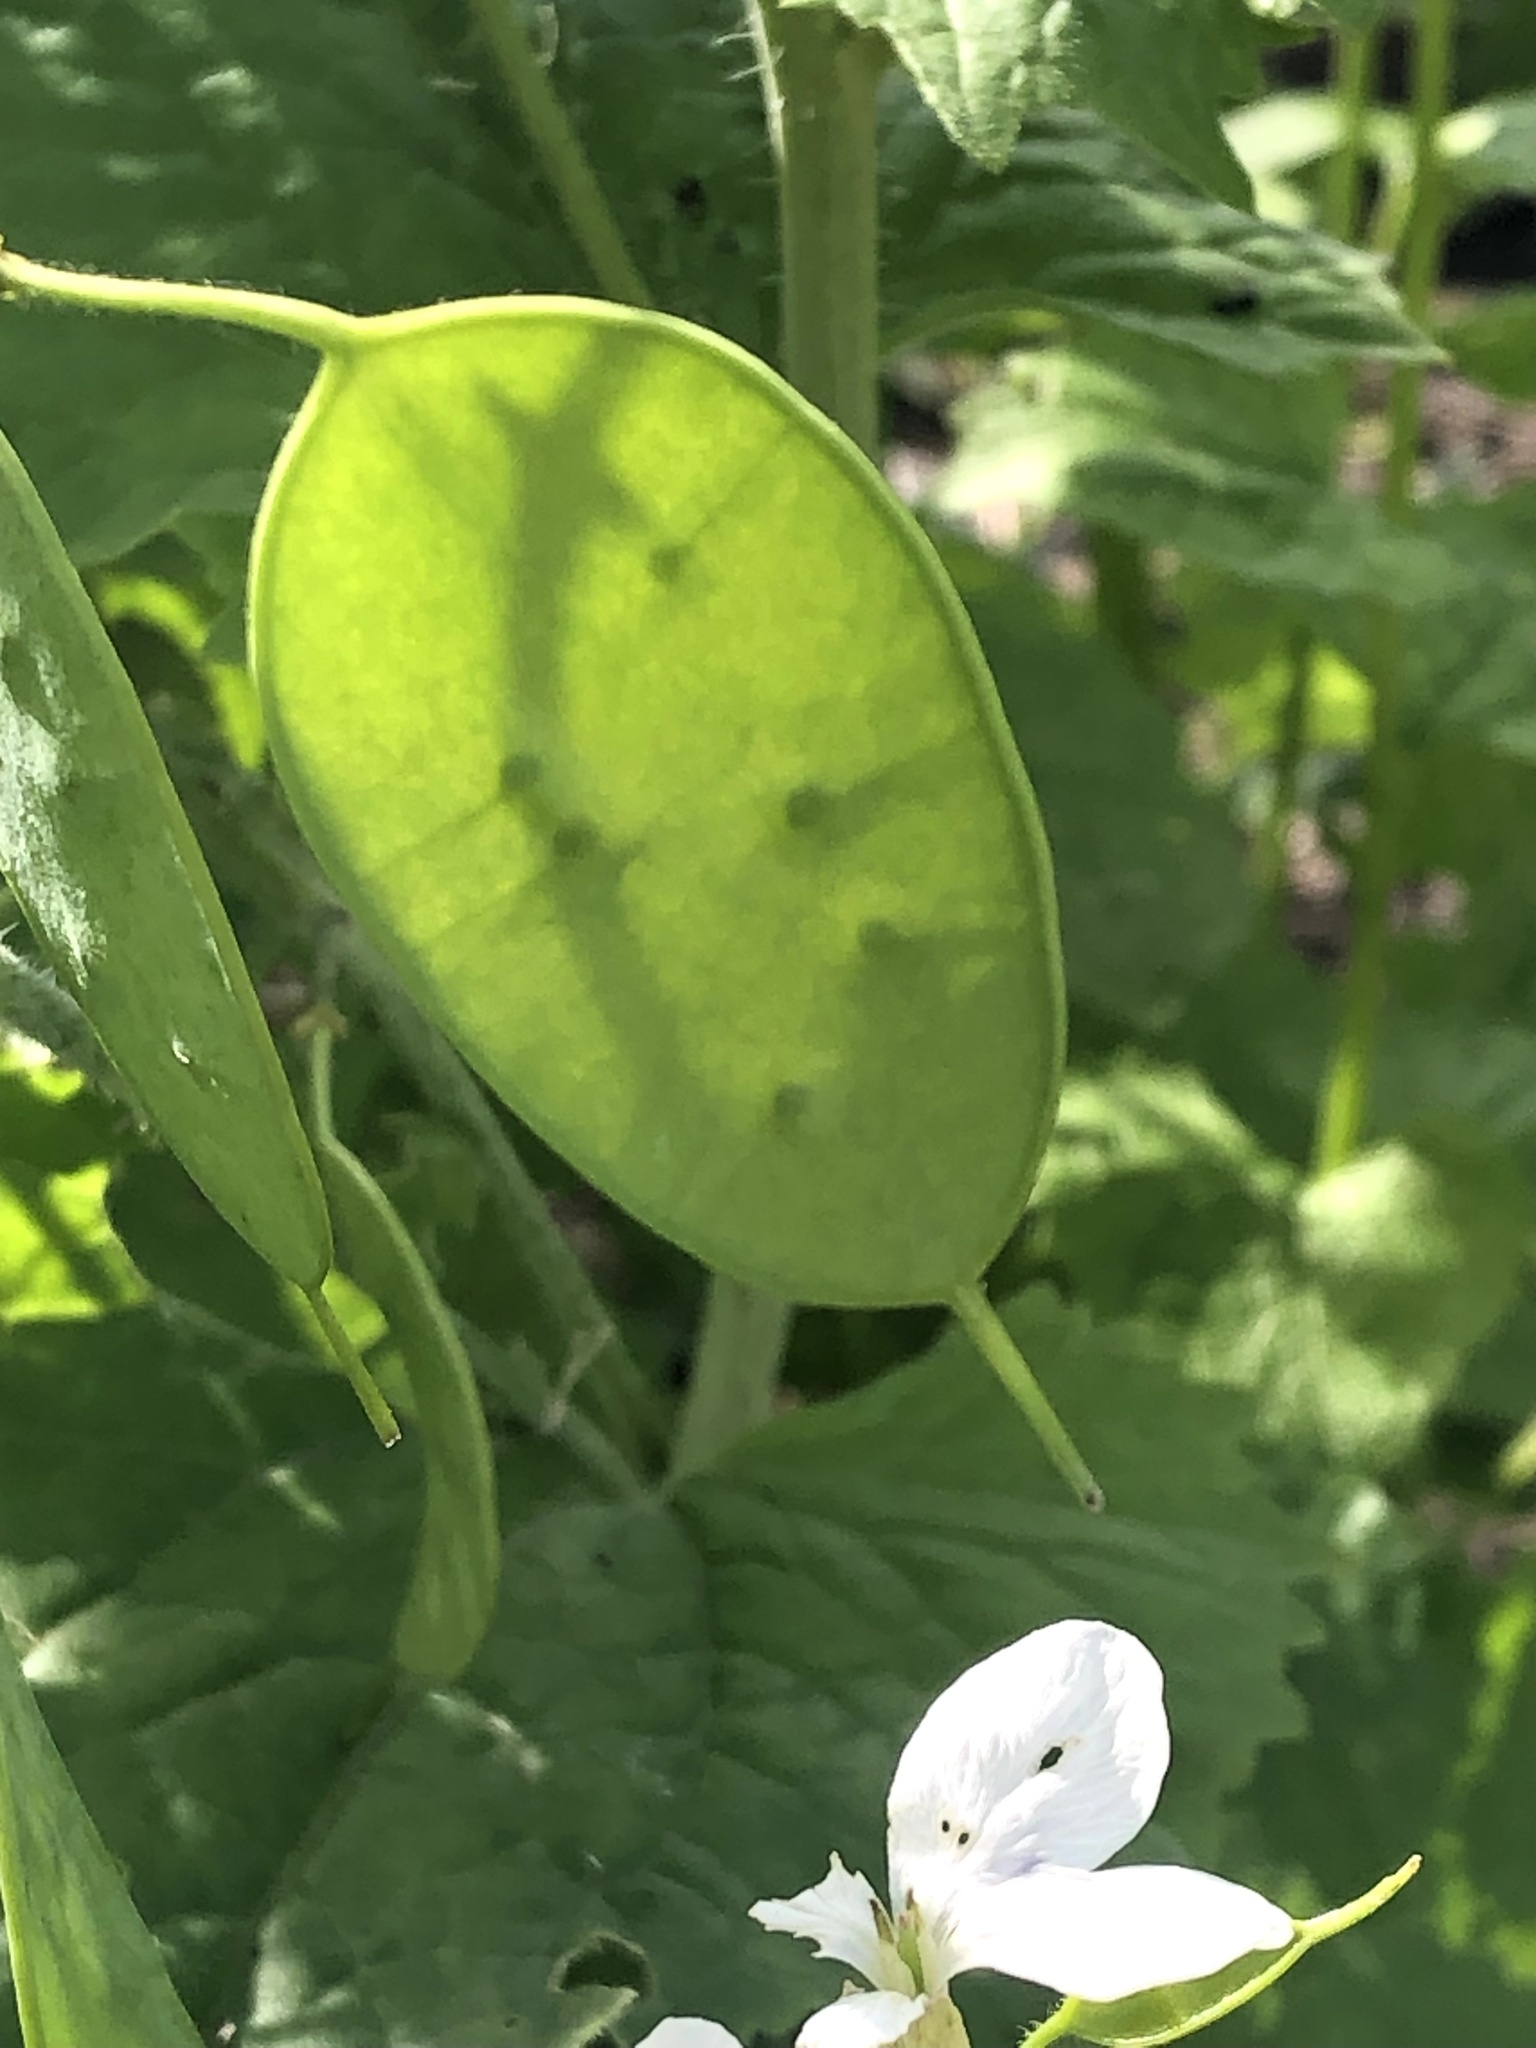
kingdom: Plantae
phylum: Tracheophyta
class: Magnoliopsida
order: Brassicales
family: Brassicaceae
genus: Lunaria
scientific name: Lunaria annua
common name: Honesty
